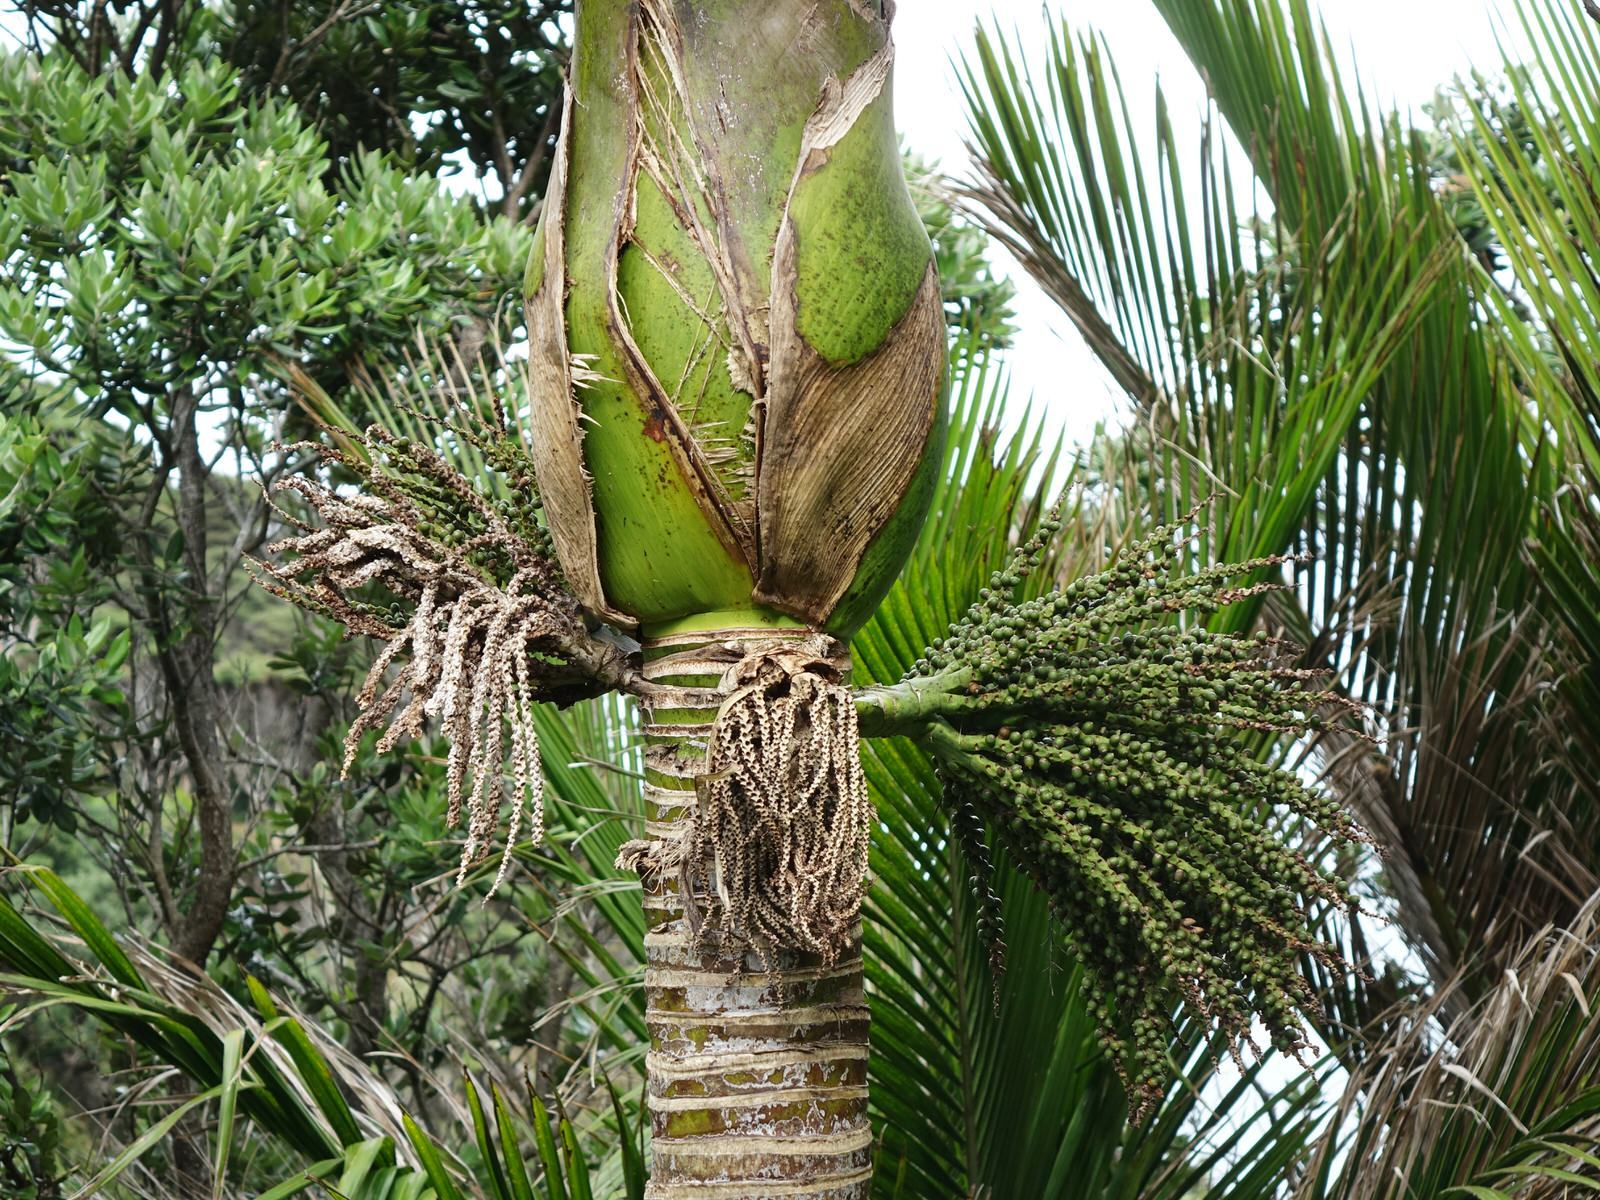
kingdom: Plantae
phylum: Tracheophyta
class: Liliopsida
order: Arecales
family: Arecaceae
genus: Rhopalostylis
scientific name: Rhopalostylis sapida
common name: Feather-duster palm
